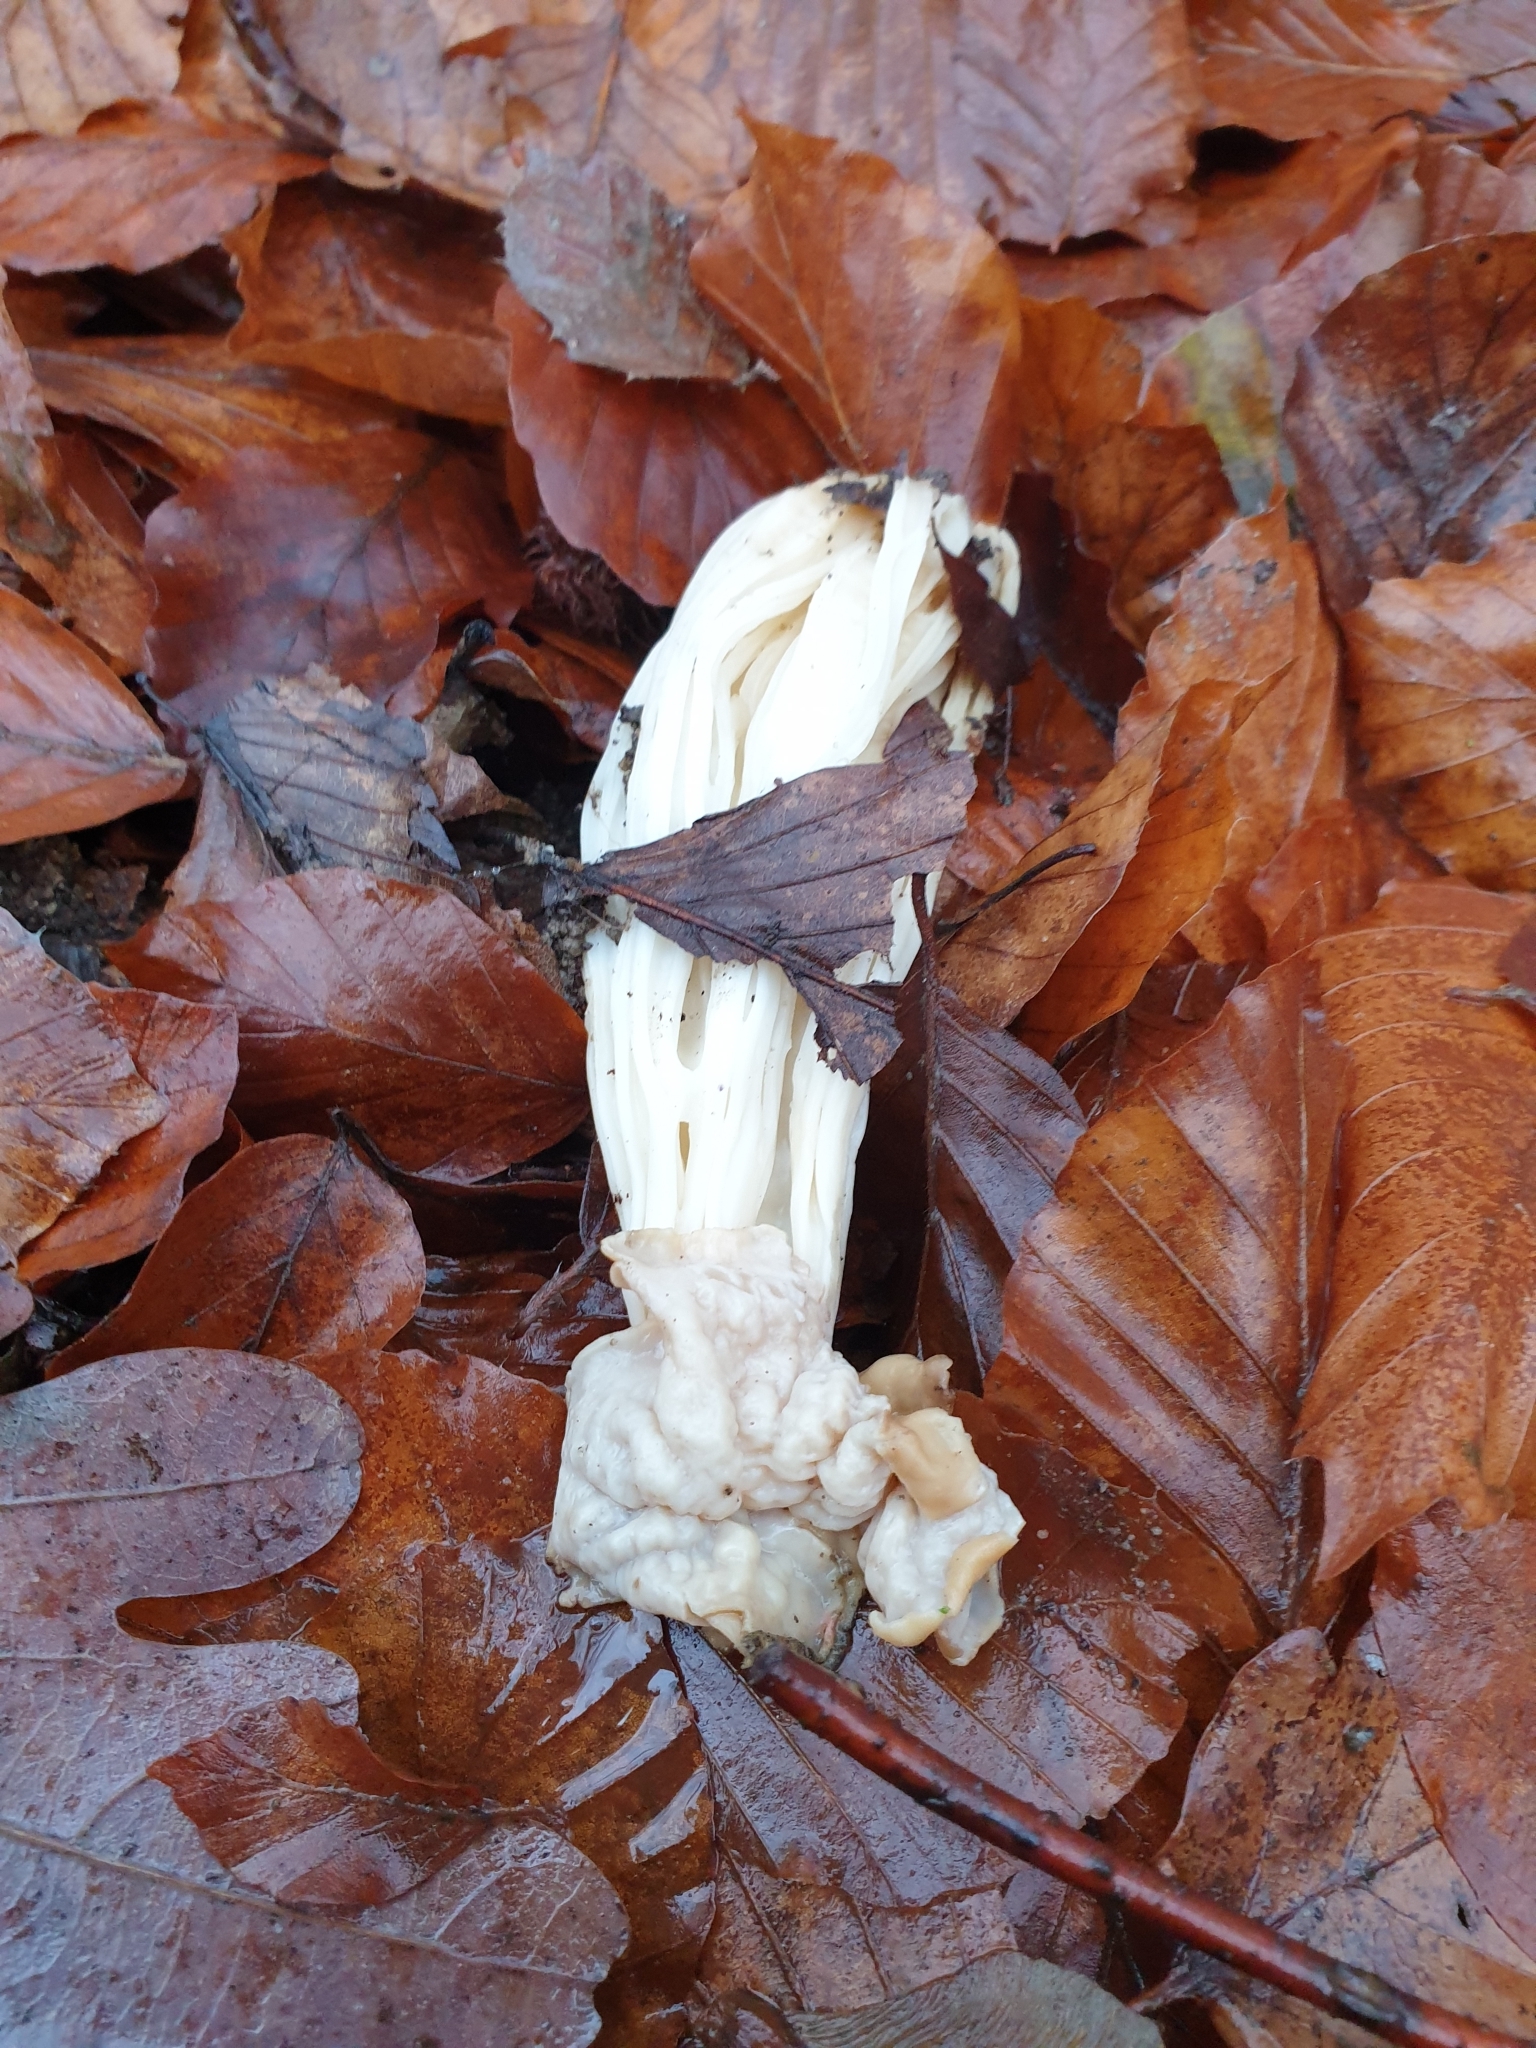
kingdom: Fungi
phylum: Ascomycota
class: Pezizomycetes
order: Pezizales
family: Helvellaceae
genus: Helvella
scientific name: Helvella crispa
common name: White saddle
